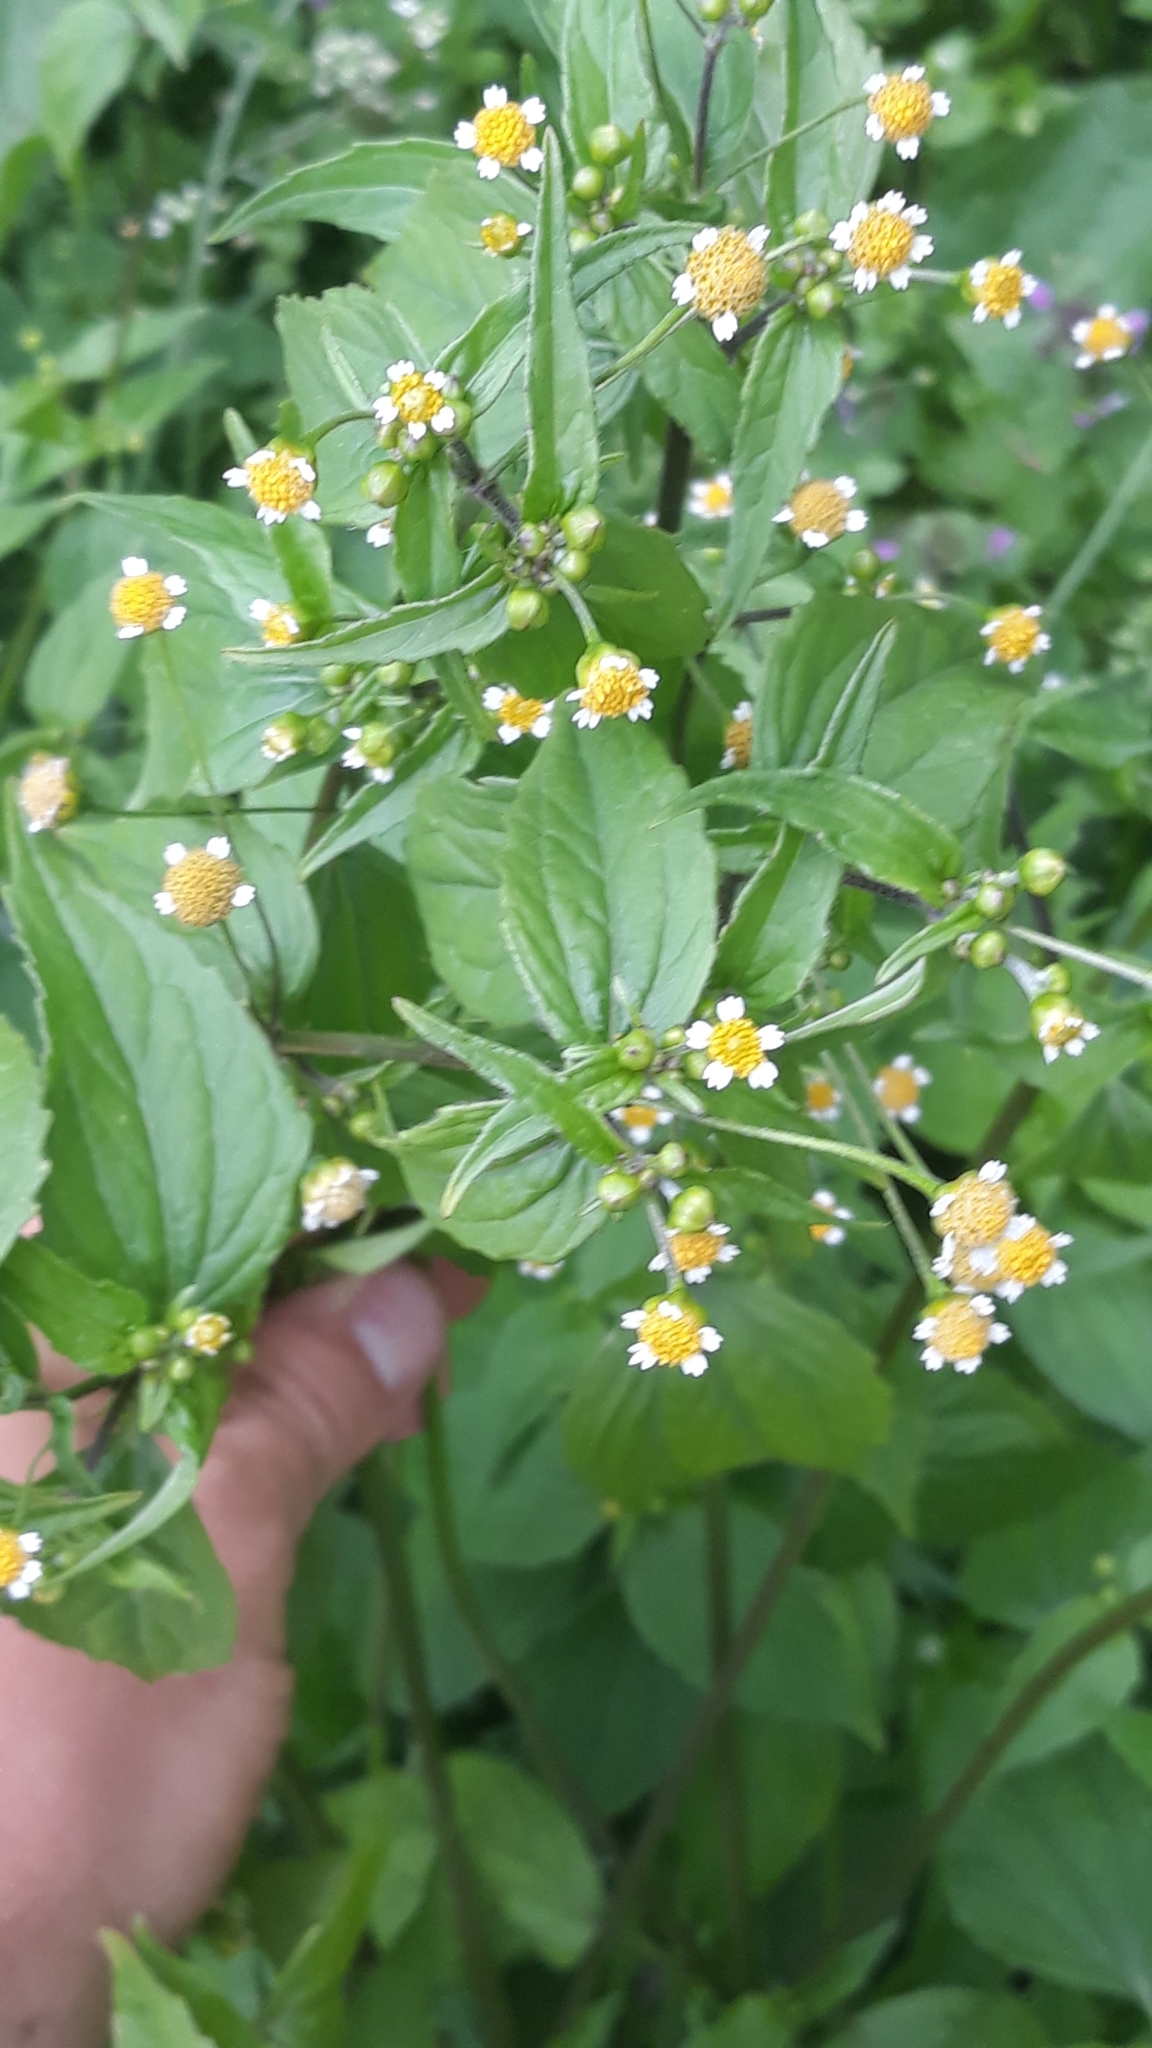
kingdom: Plantae
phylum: Tracheophyta
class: Magnoliopsida
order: Asterales
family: Asteraceae
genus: Galinsoga
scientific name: Galinsoga parviflora
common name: Gallant soldier
